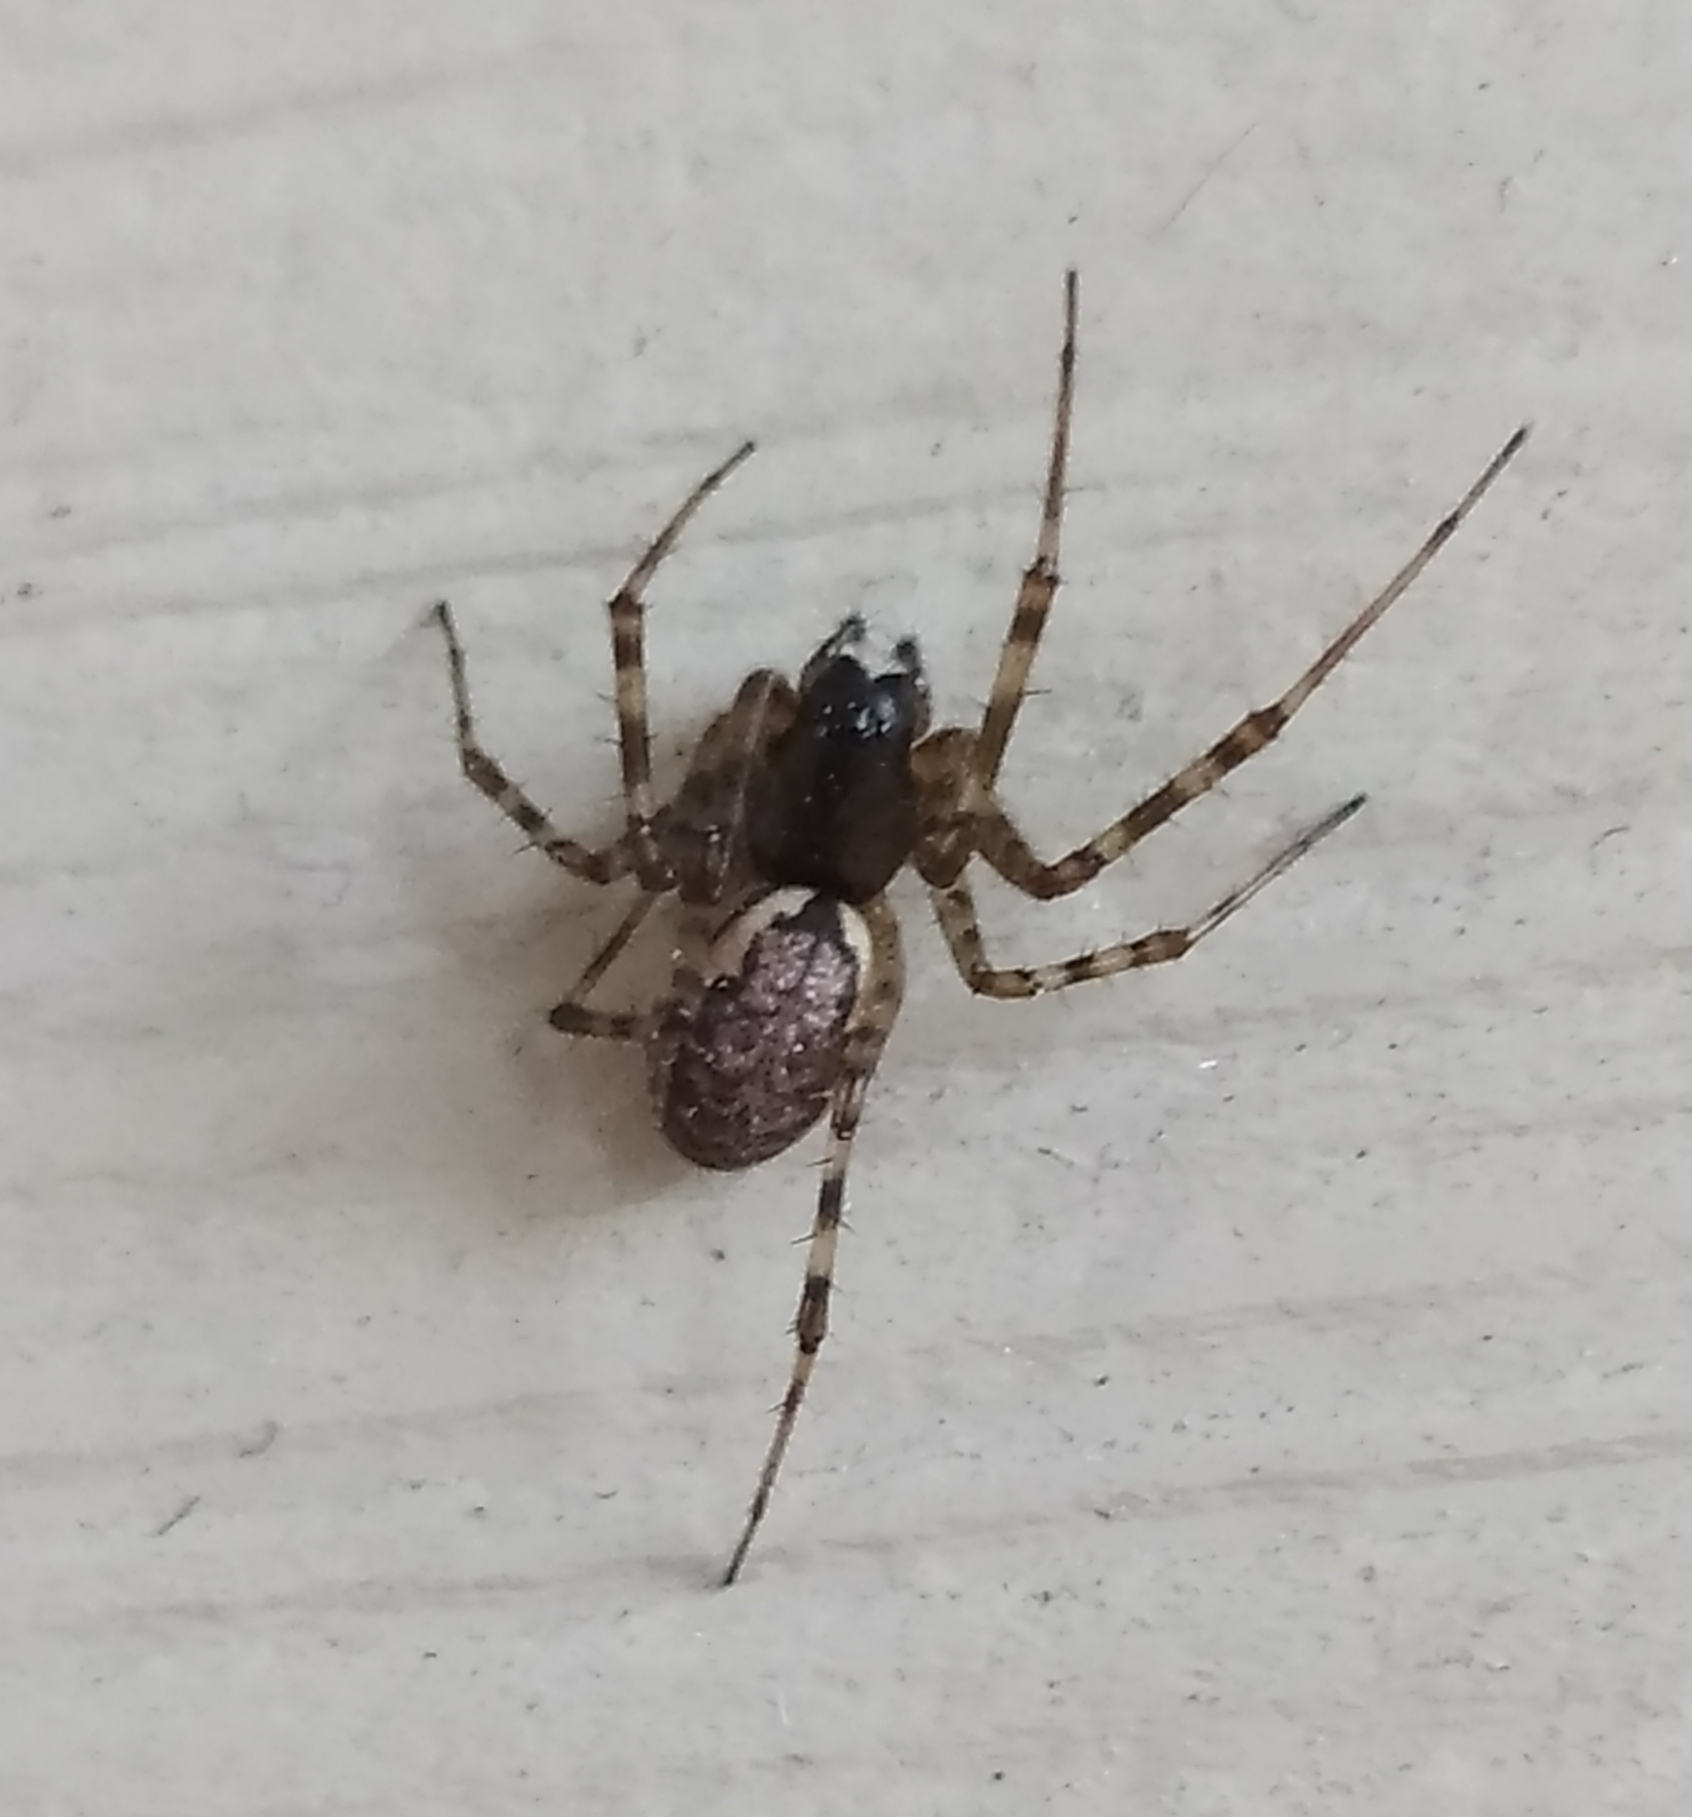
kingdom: Animalia
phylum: Arthropoda
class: Arachnida
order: Araneae
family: Linyphiidae
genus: Neriene
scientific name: Neriene montana
